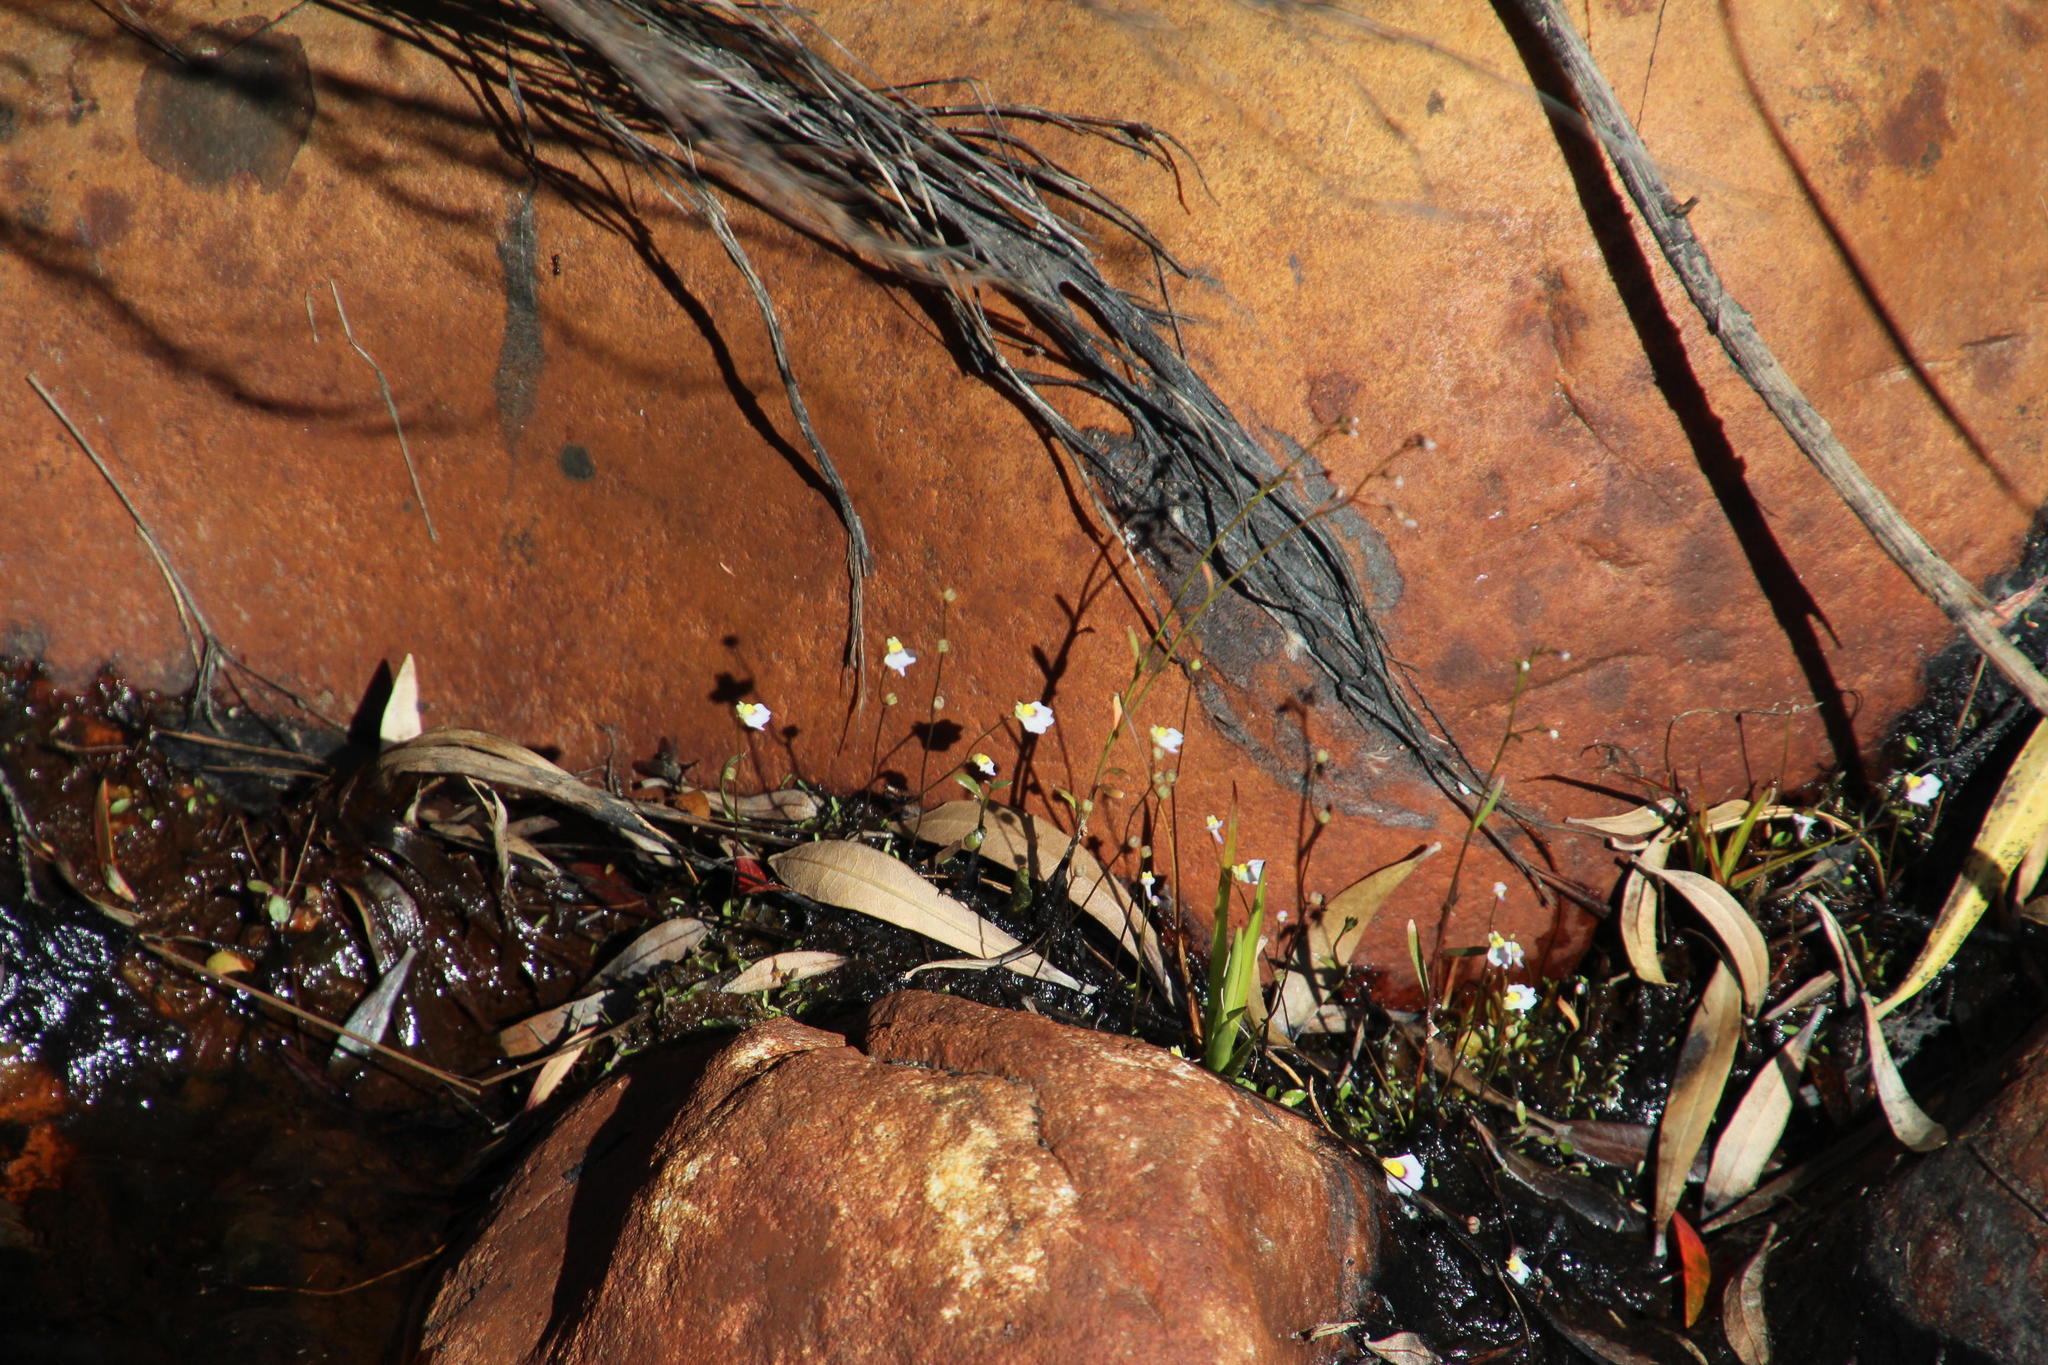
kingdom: Plantae
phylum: Tracheophyta
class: Magnoliopsida
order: Lamiales
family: Lentibulariaceae
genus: Utricularia
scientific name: Utricularia bisquamata
